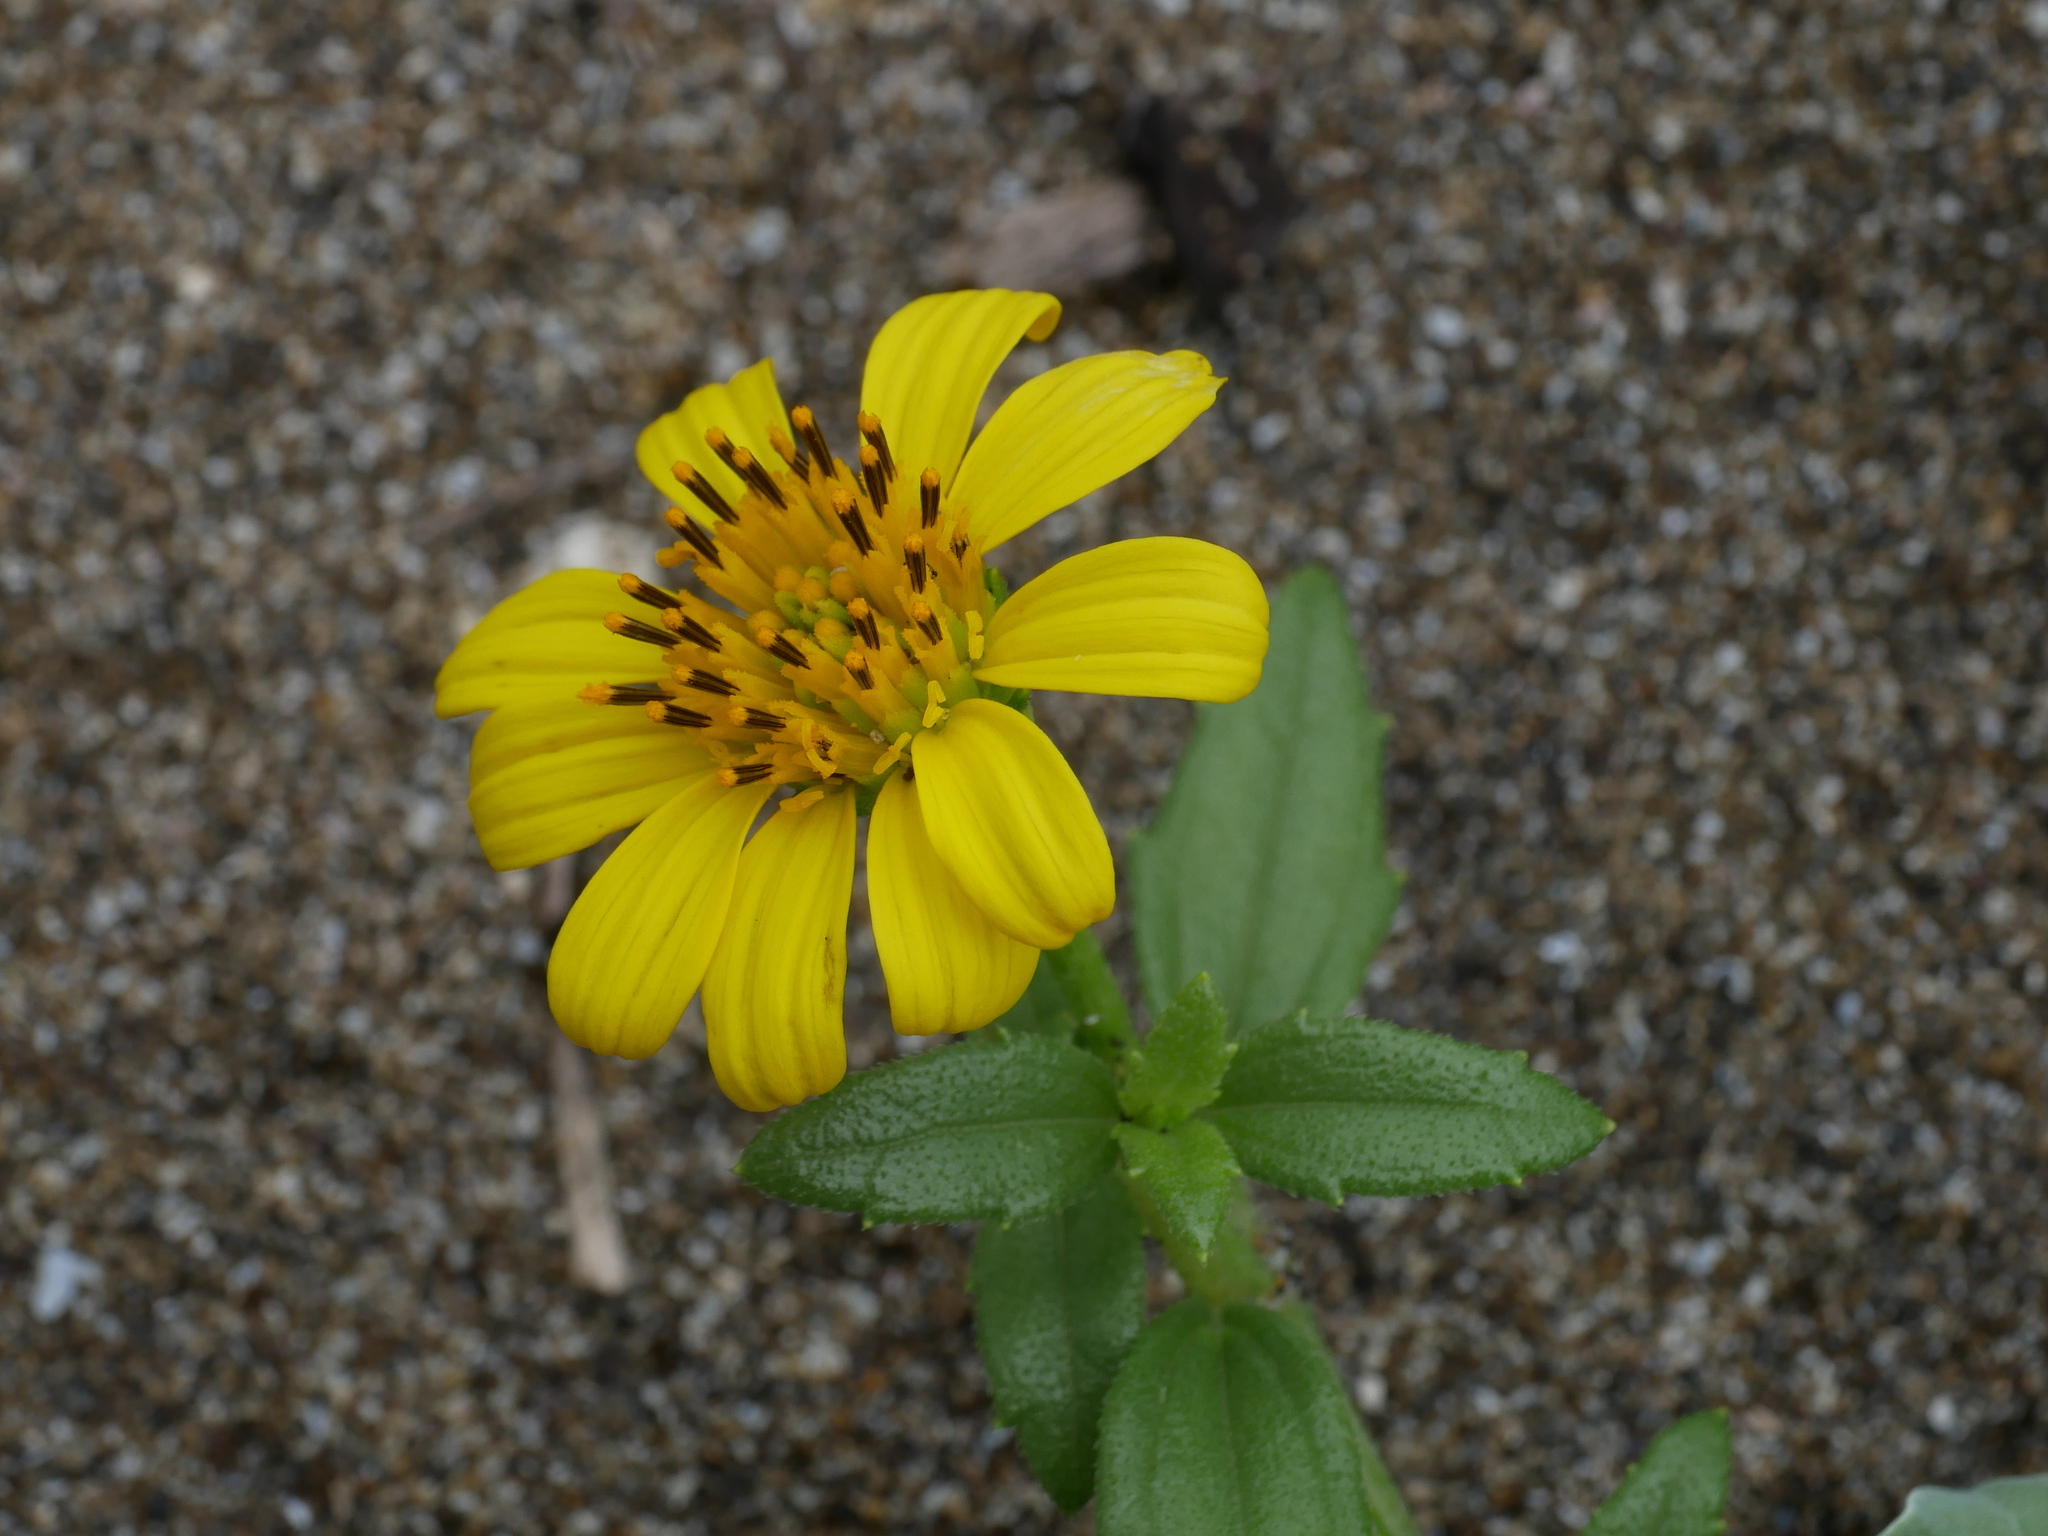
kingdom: Plantae
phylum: Tracheophyta
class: Magnoliopsida
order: Asterales
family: Asteraceae
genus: Melanthera
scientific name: Melanthera prostrata
